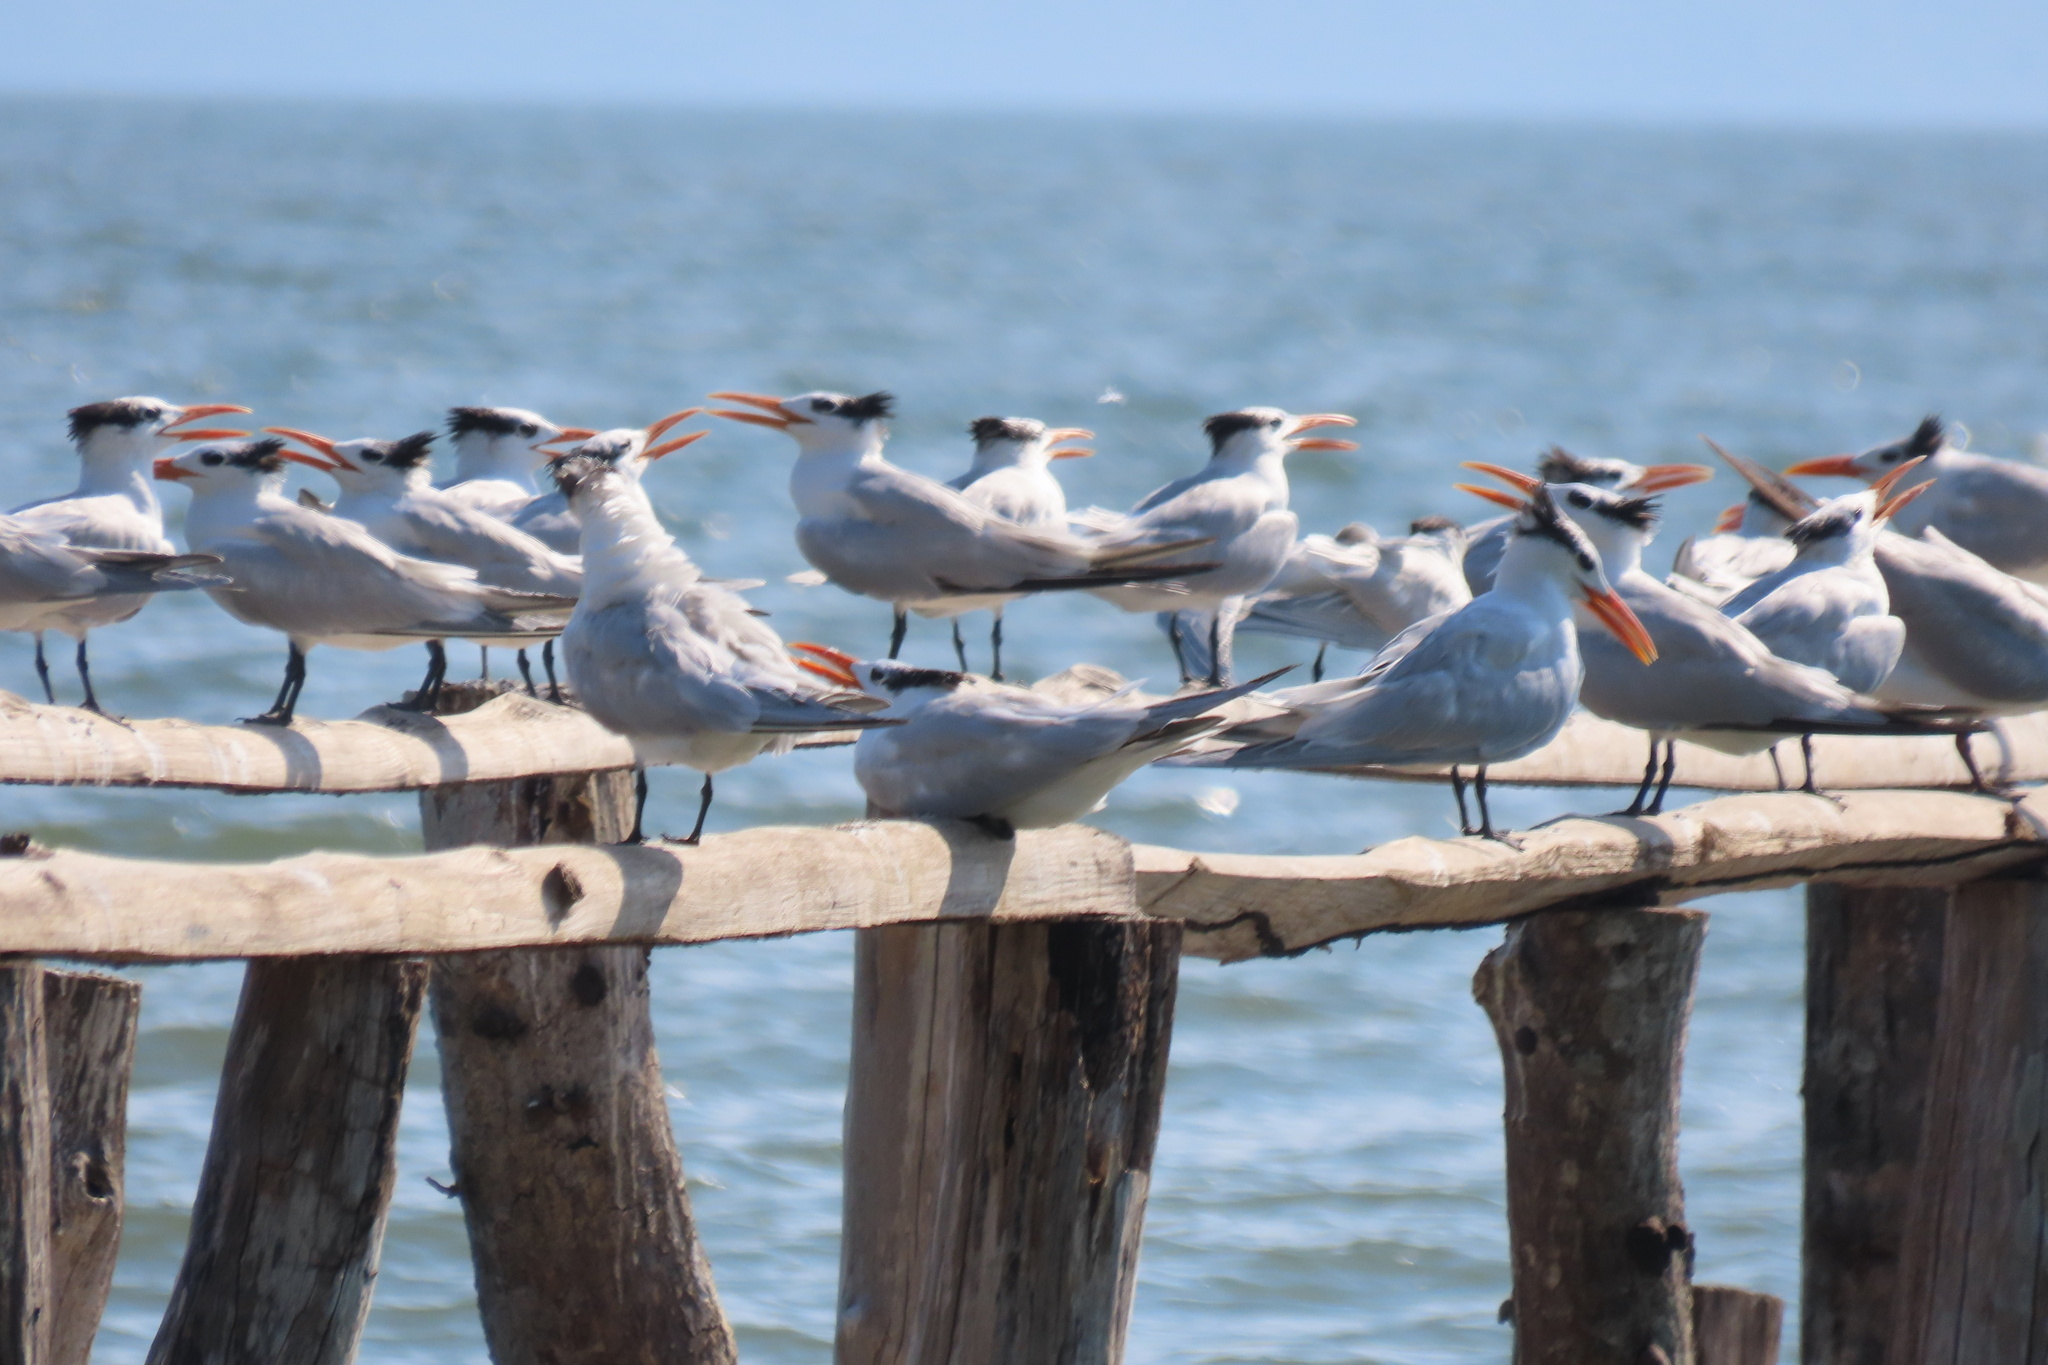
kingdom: Animalia
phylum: Chordata
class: Aves
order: Charadriiformes
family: Laridae
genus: Thalasseus
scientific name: Thalasseus maximus
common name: Royal tern
